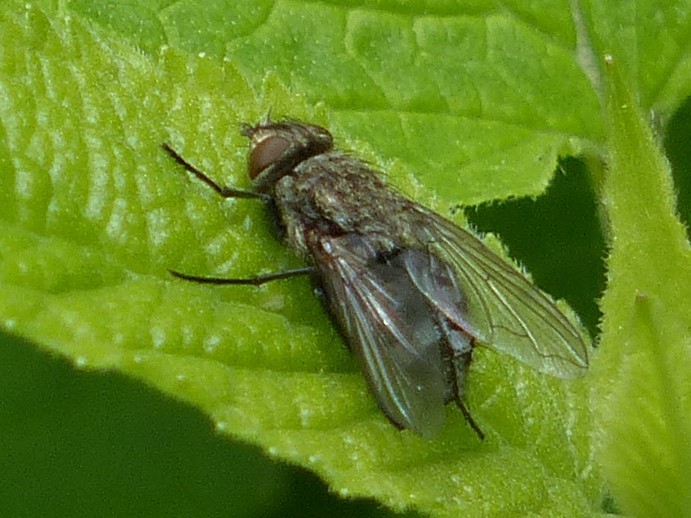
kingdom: Animalia
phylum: Arthropoda
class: Insecta
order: Diptera
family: Polleniidae
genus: Pollenia
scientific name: Pollenia
